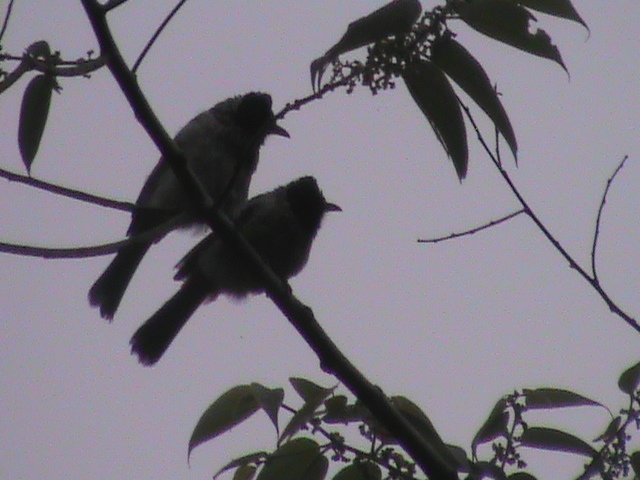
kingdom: Animalia
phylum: Chordata
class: Aves
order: Passeriformes
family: Pycnonotidae
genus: Pycnonotus
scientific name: Pycnonotus cafer
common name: Red-vented bulbul
